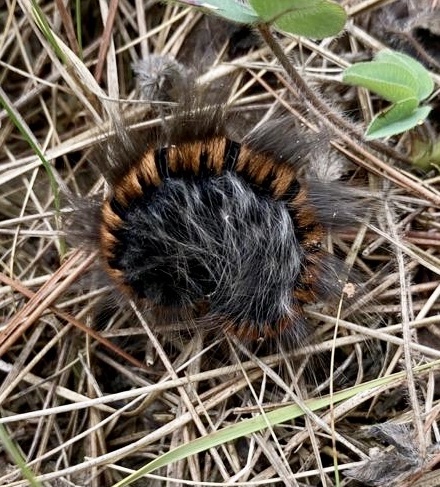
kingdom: Animalia
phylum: Arthropoda
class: Insecta
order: Lepidoptera
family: Lasiocampidae
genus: Macrothylacia
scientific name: Macrothylacia rubi
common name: Fox moth
